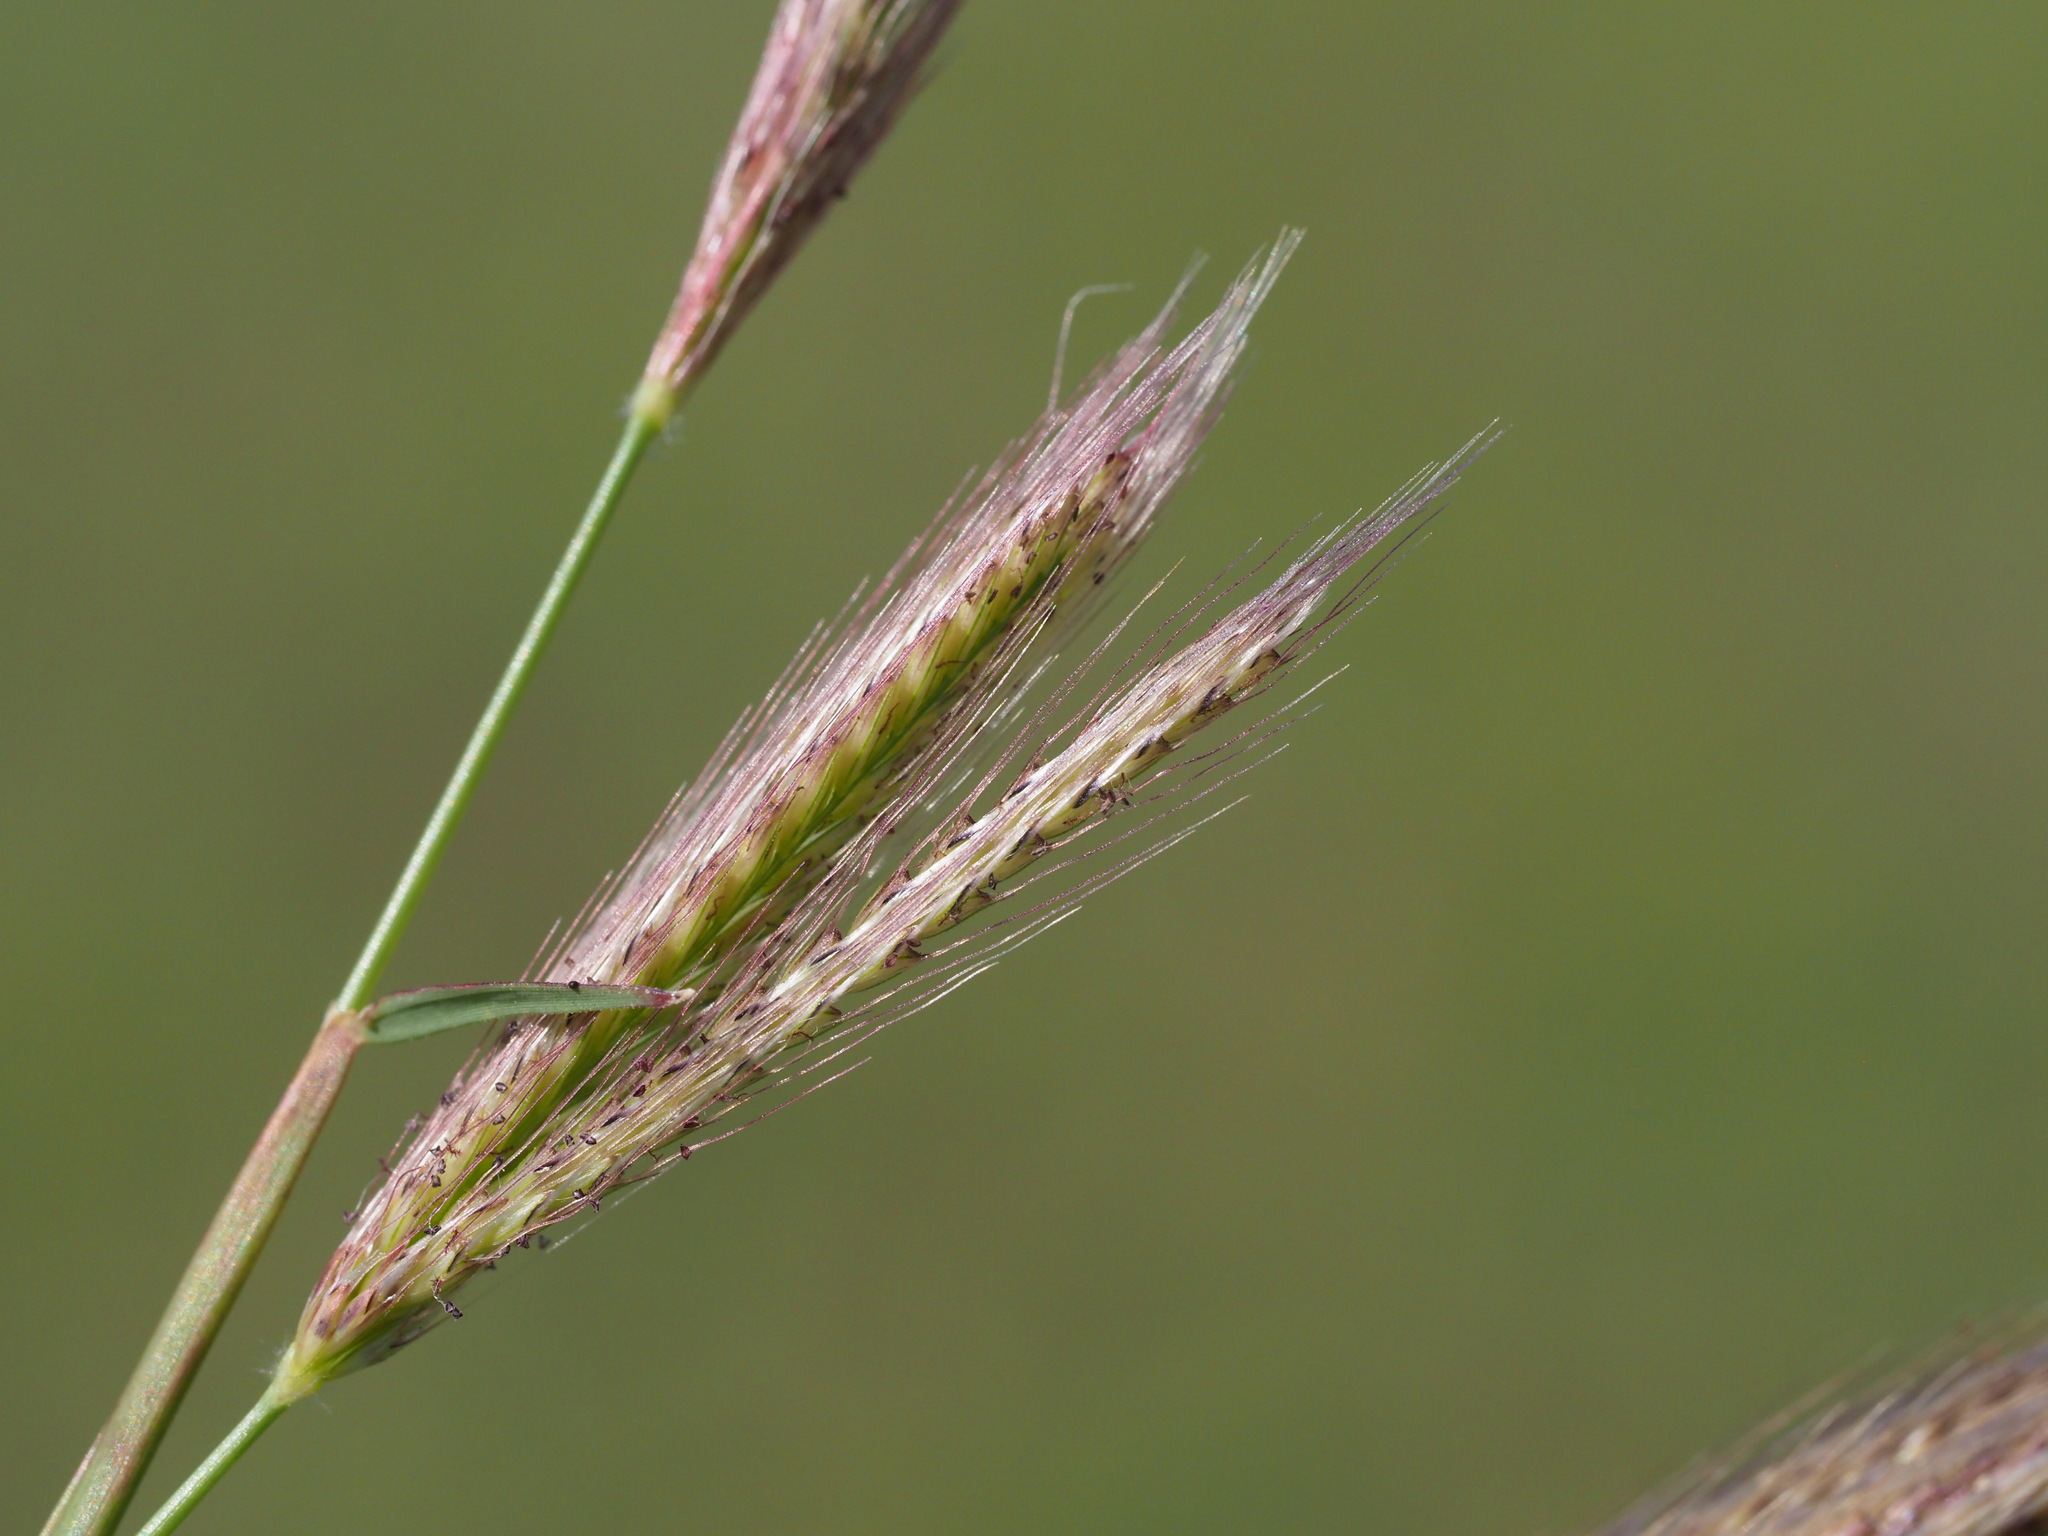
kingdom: Plantae
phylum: Tracheophyta
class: Liliopsida
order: Poales
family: Poaceae
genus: Chloris
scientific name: Chloris virgata
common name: Feathery rhodes-grass
